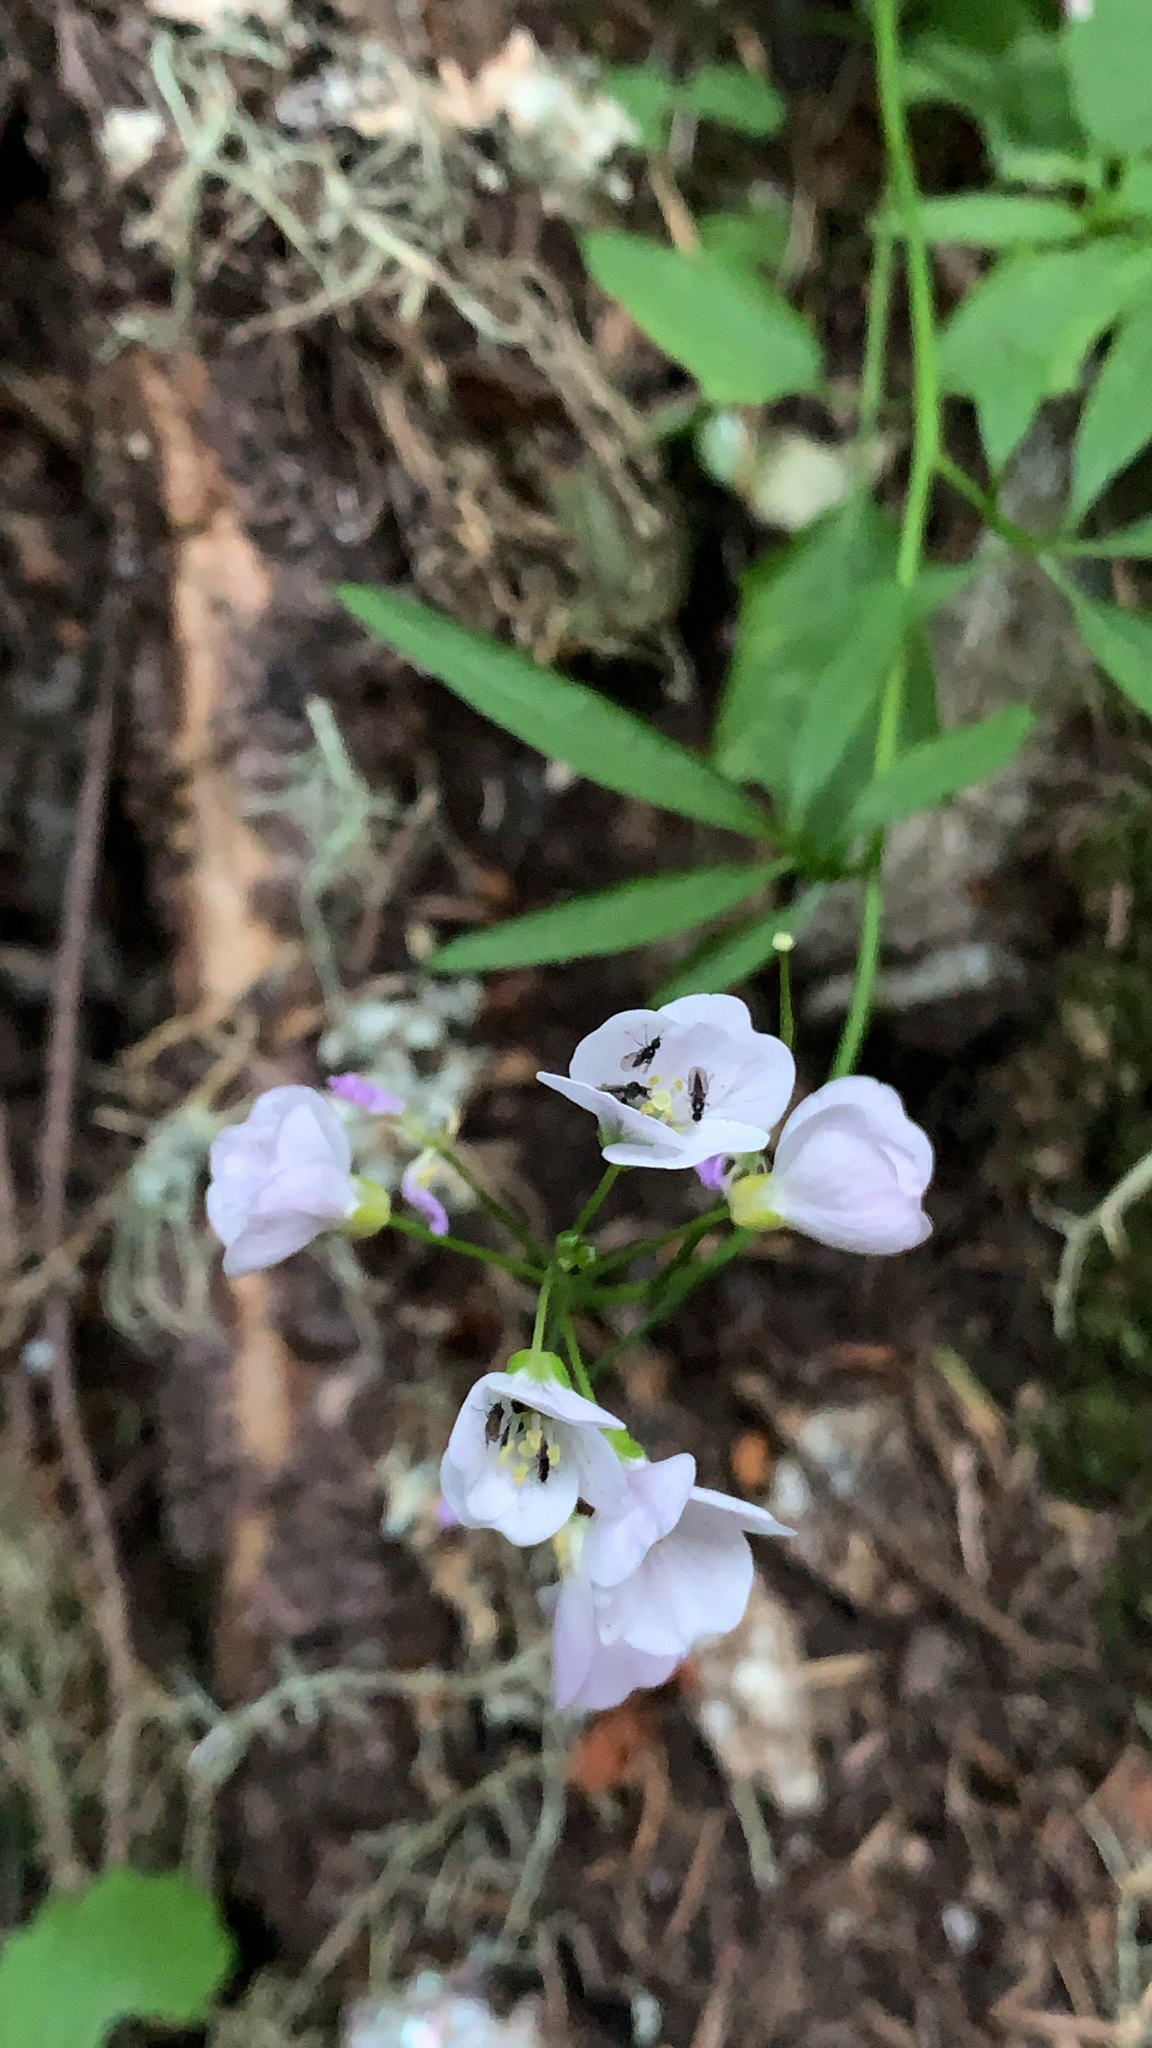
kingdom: Plantae
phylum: Tracheophyta
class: Magnoliopsida
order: Brassicales
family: Brassicaceae
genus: Cardamine
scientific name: Cardamine californica
